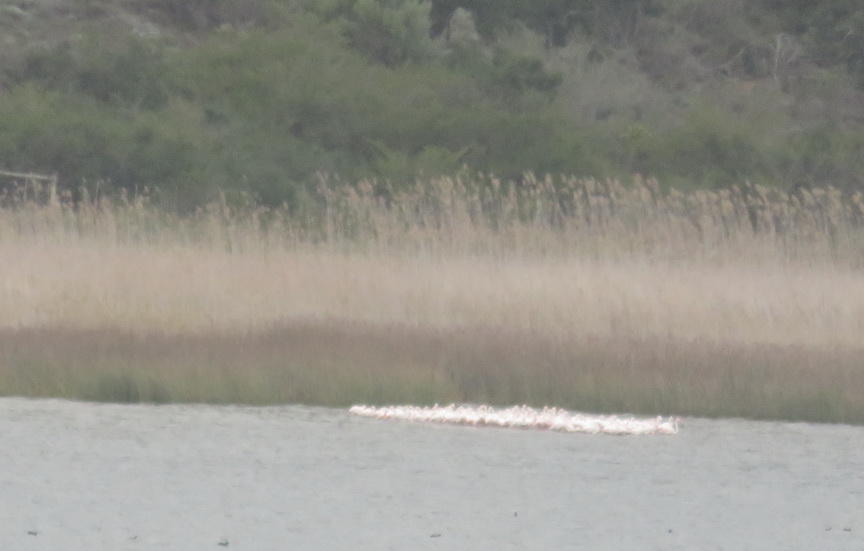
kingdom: Animalia
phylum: Chordata
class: Aves
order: Phoenicopteriformes
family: Phoenicopteridae
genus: Phoenicopterus
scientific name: Phoenicopterus roseus
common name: Greater flamingo
